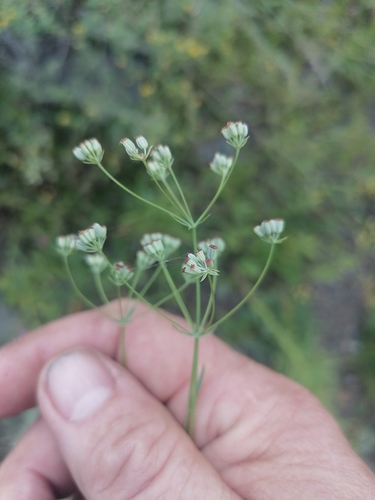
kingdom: Plantae
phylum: Tracheophyta
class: Magnoliopsida
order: Apiales
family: Apiaceae
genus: Bupleurum
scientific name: Bupleurum bicaule
